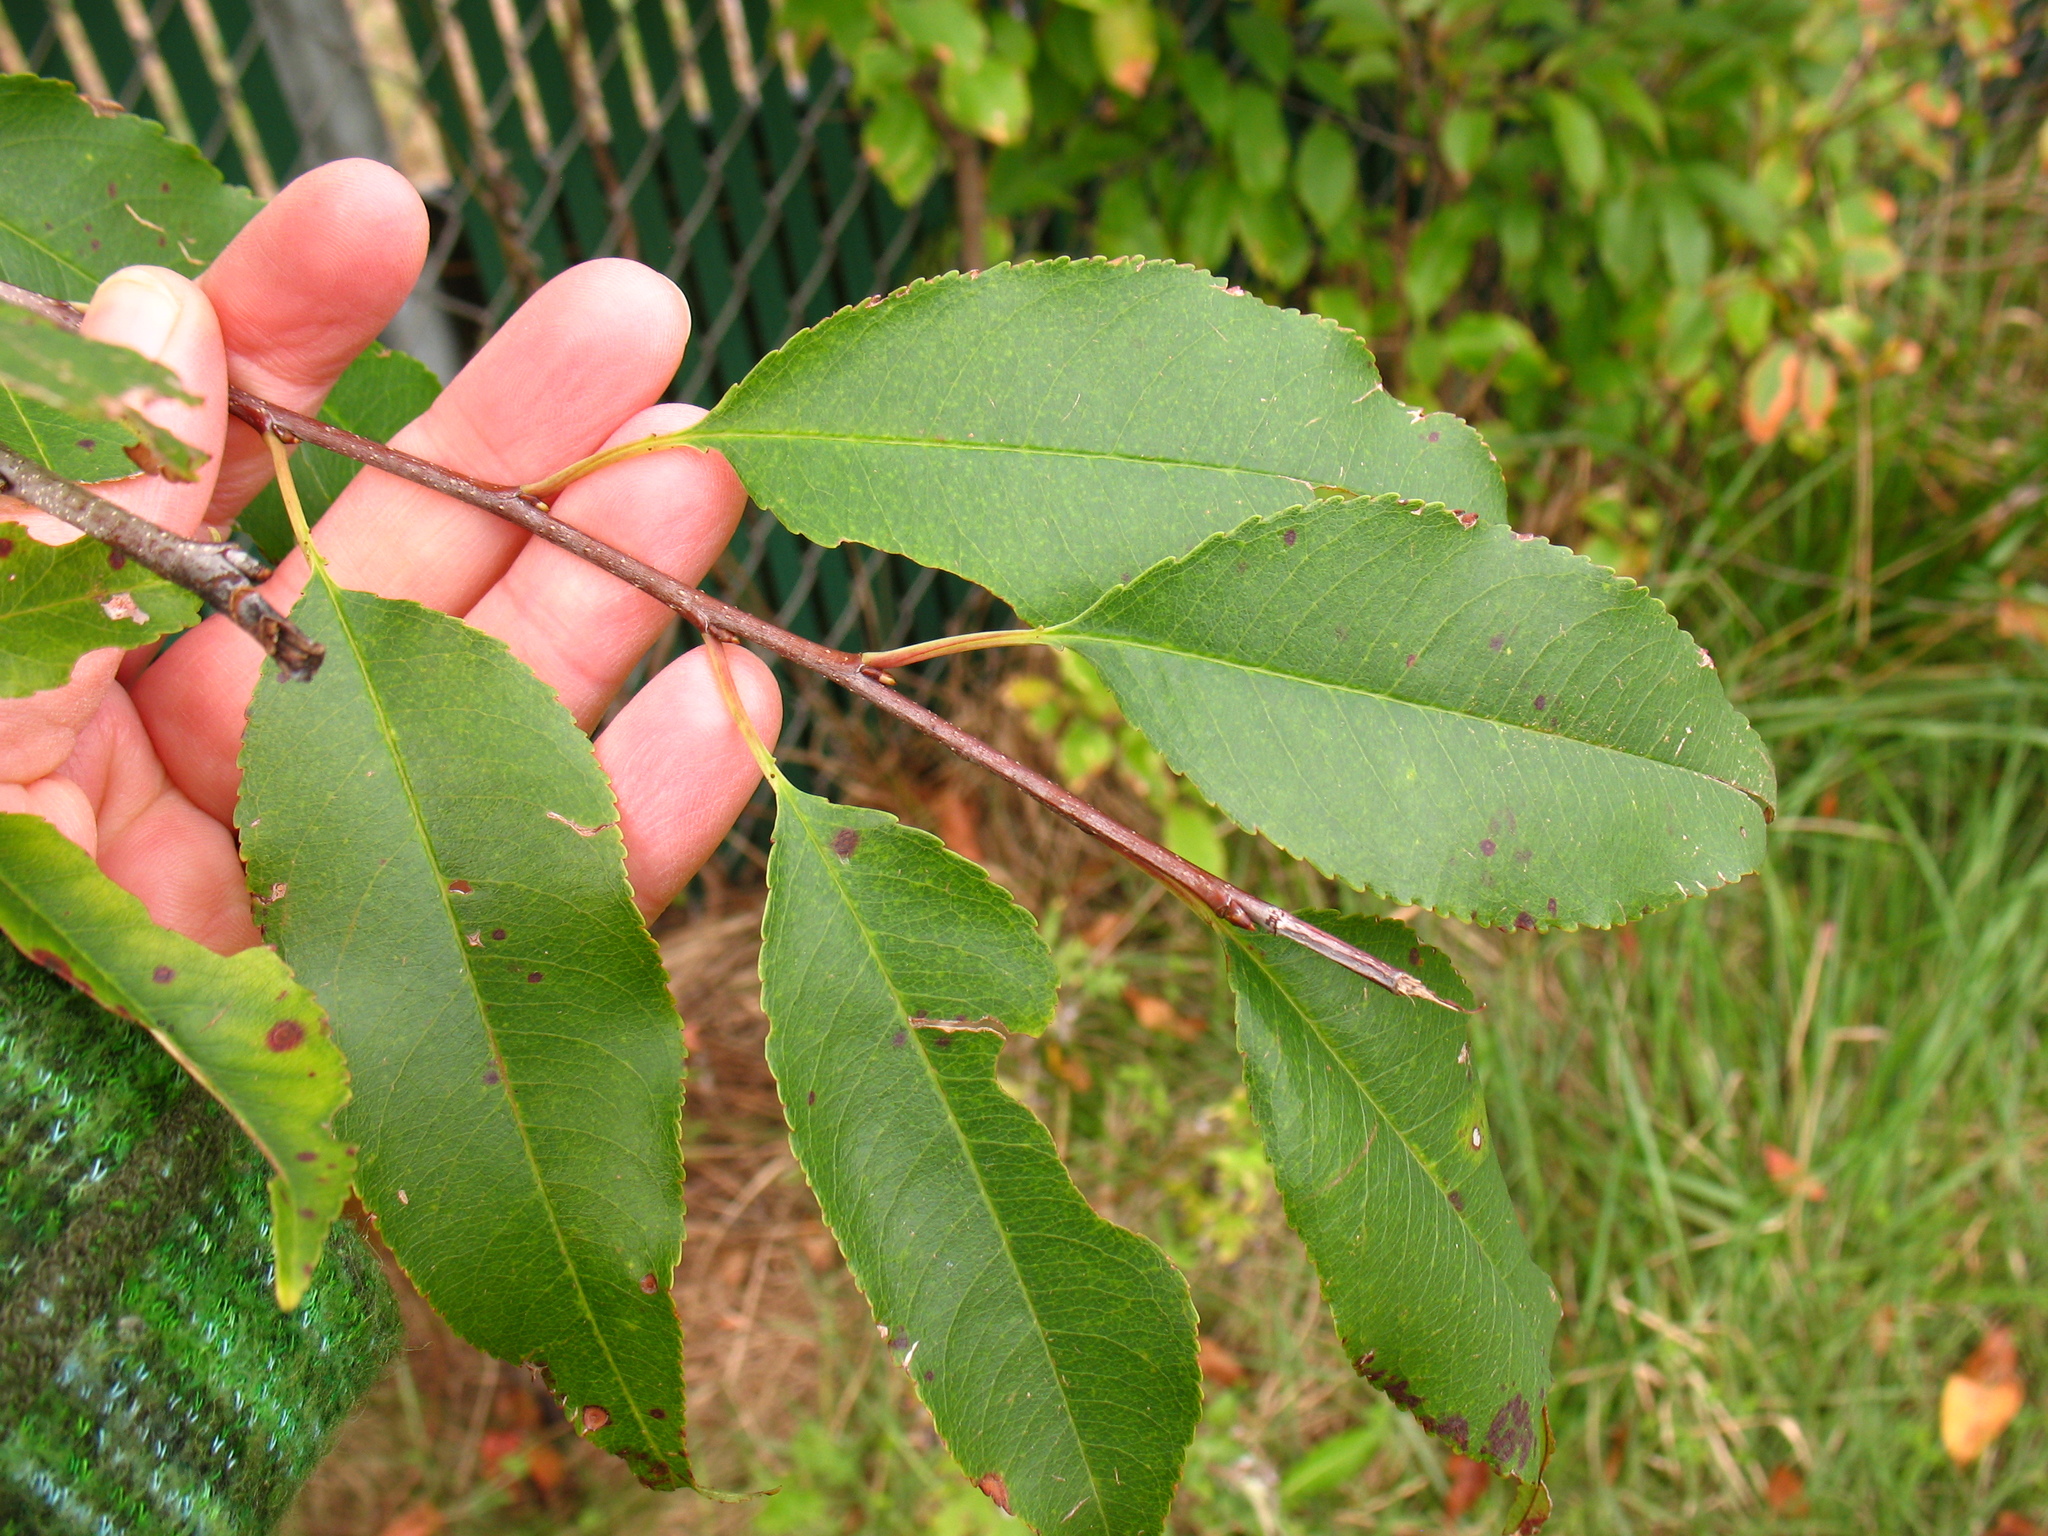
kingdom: Plantae
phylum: Tracheophyta
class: Magnoliopsida
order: Rosales
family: Rosaceae
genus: Prunus
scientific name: Prunus serotina
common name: Black cherry
